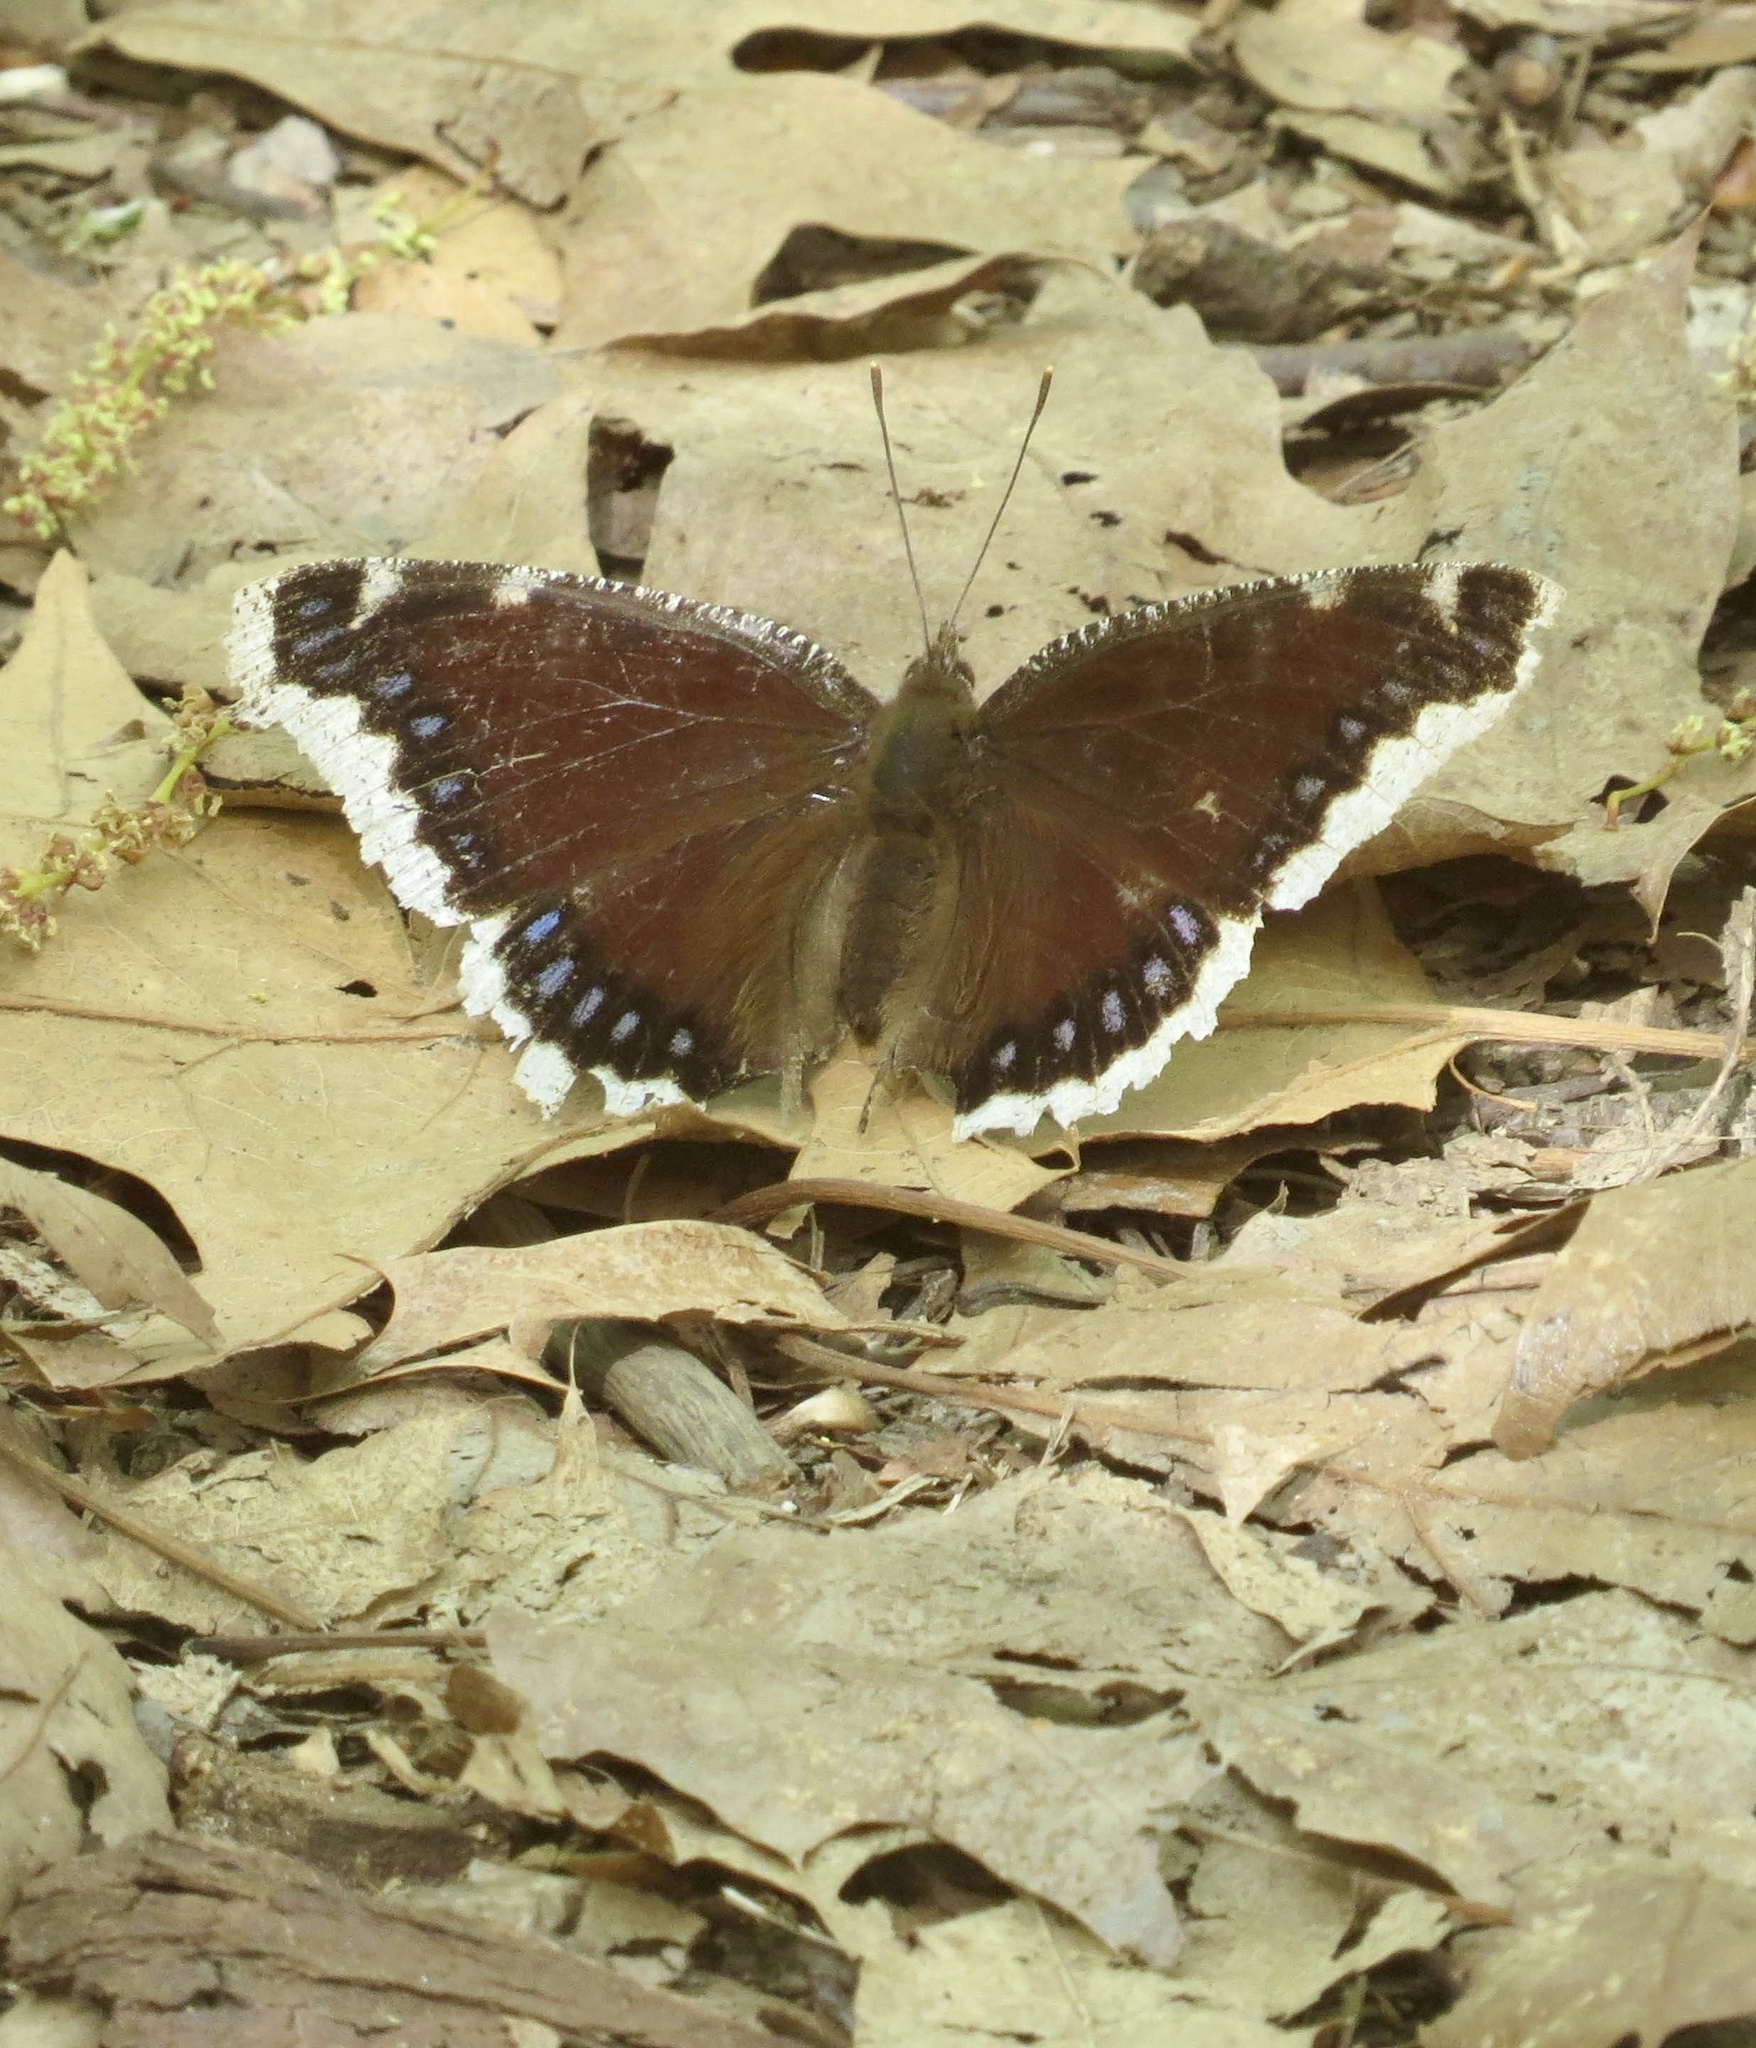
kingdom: Animalia
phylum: Arthropoda
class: Insecta
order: Lepidoptera
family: Nymphalidae
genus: Nymphalis
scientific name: Nymphalis antiopa
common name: Camberwell beauty
